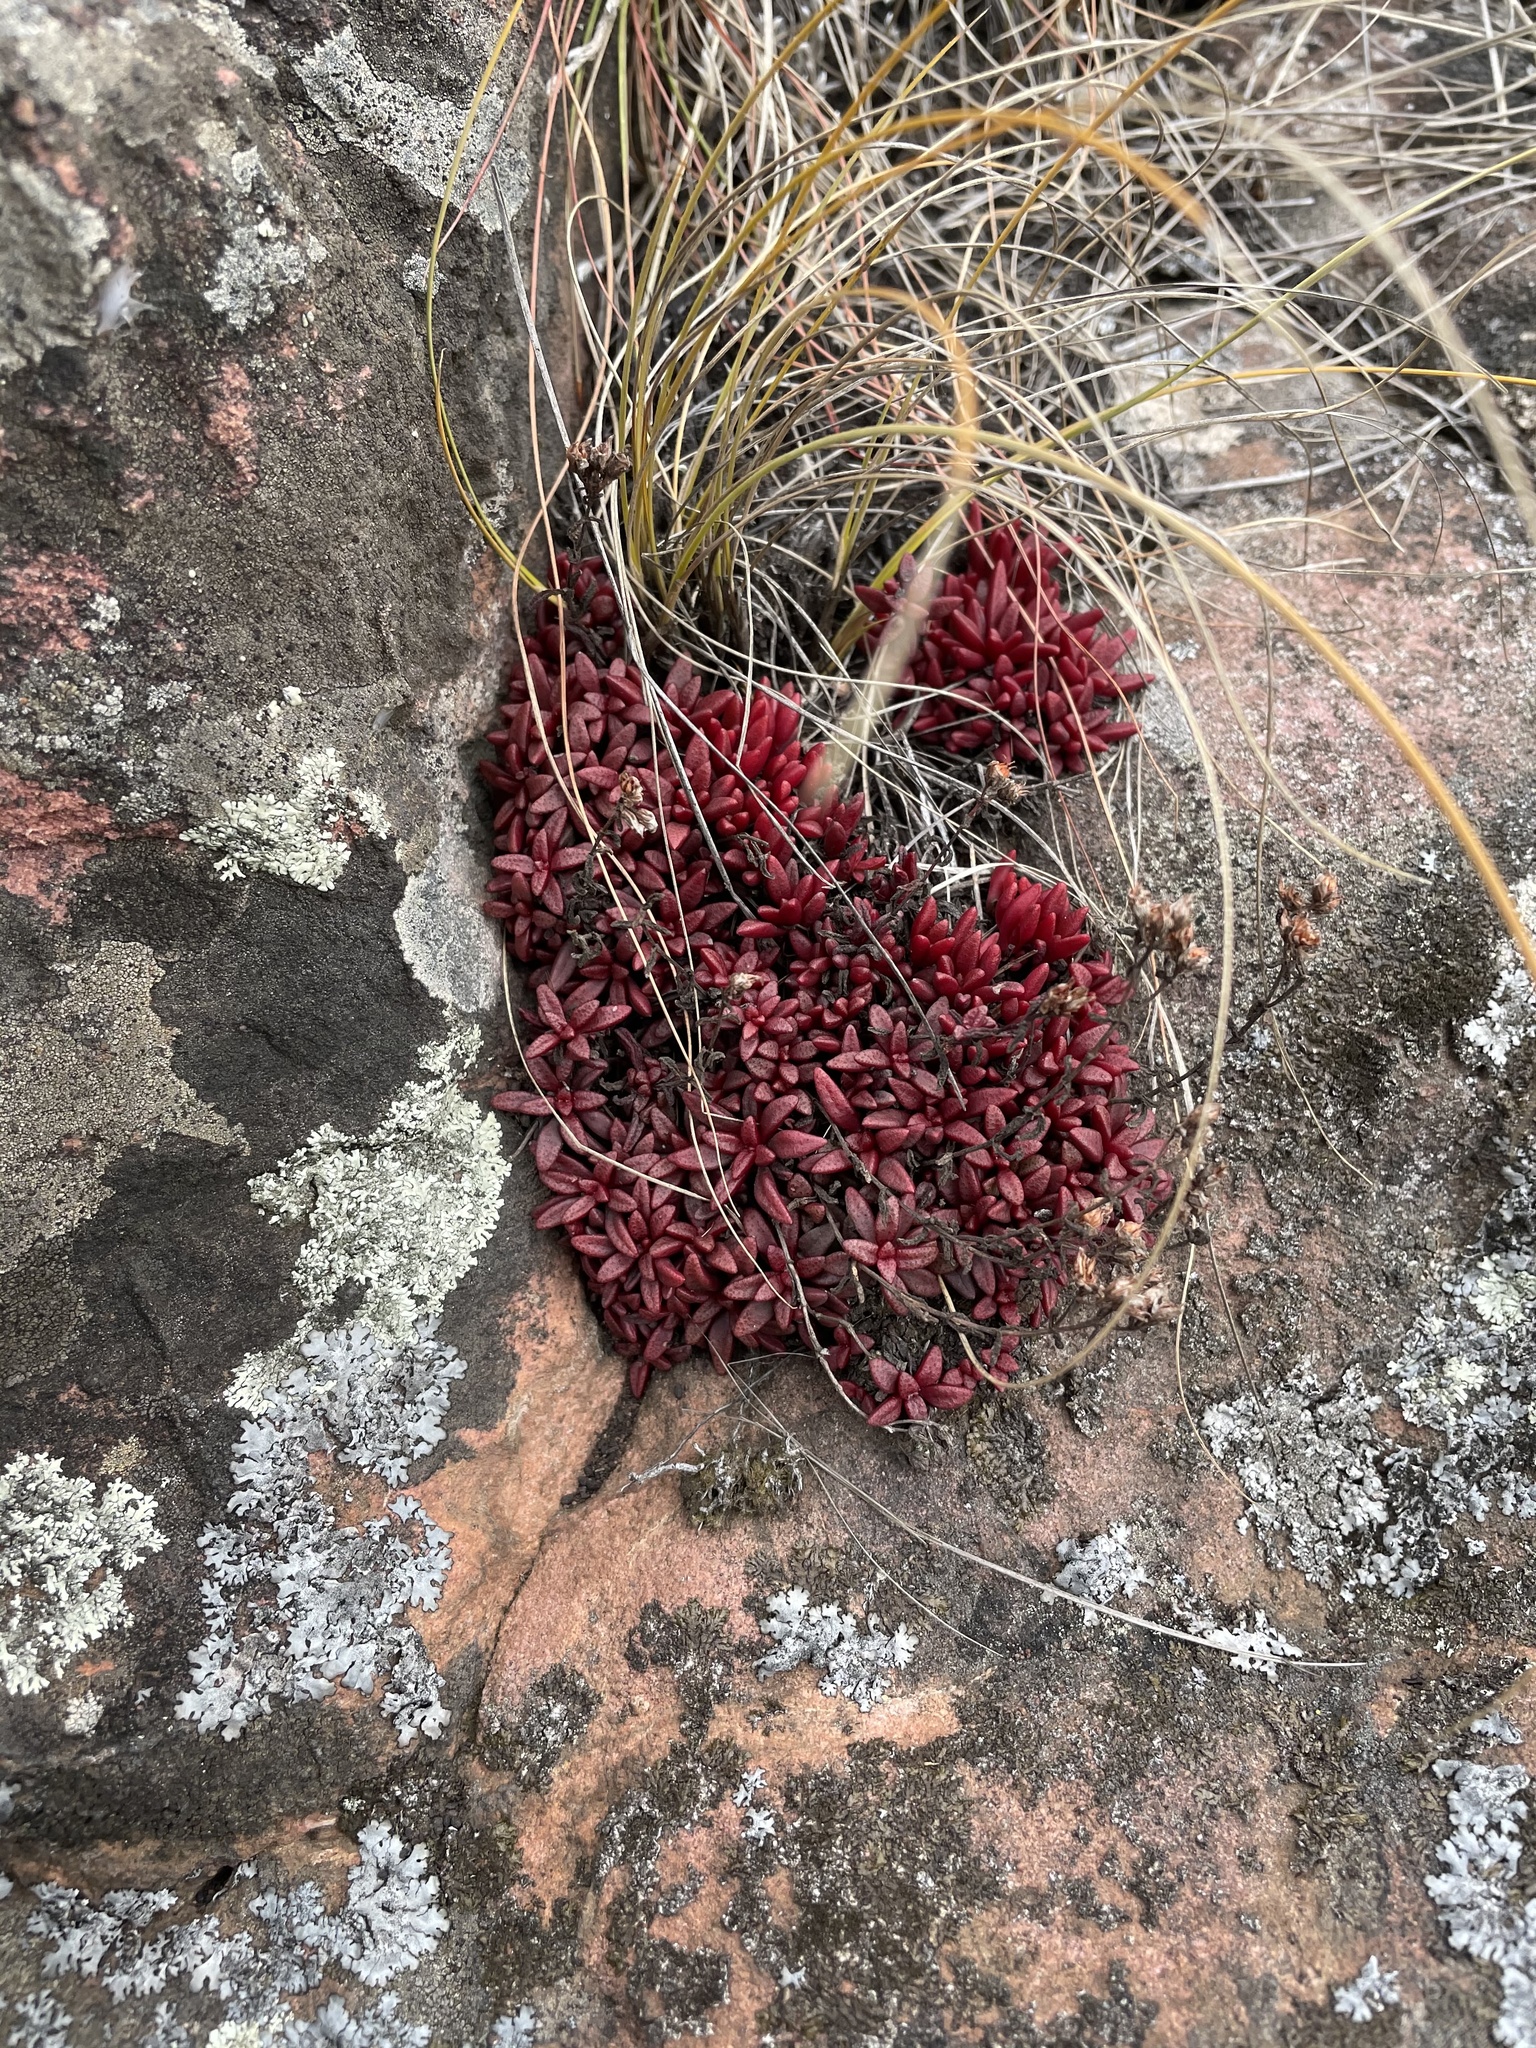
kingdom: Plantae
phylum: Tracheophyta
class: Magnoliopsida
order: Saxifragales
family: Crassulaceae
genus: Crassula
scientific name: Crassula setulosa
